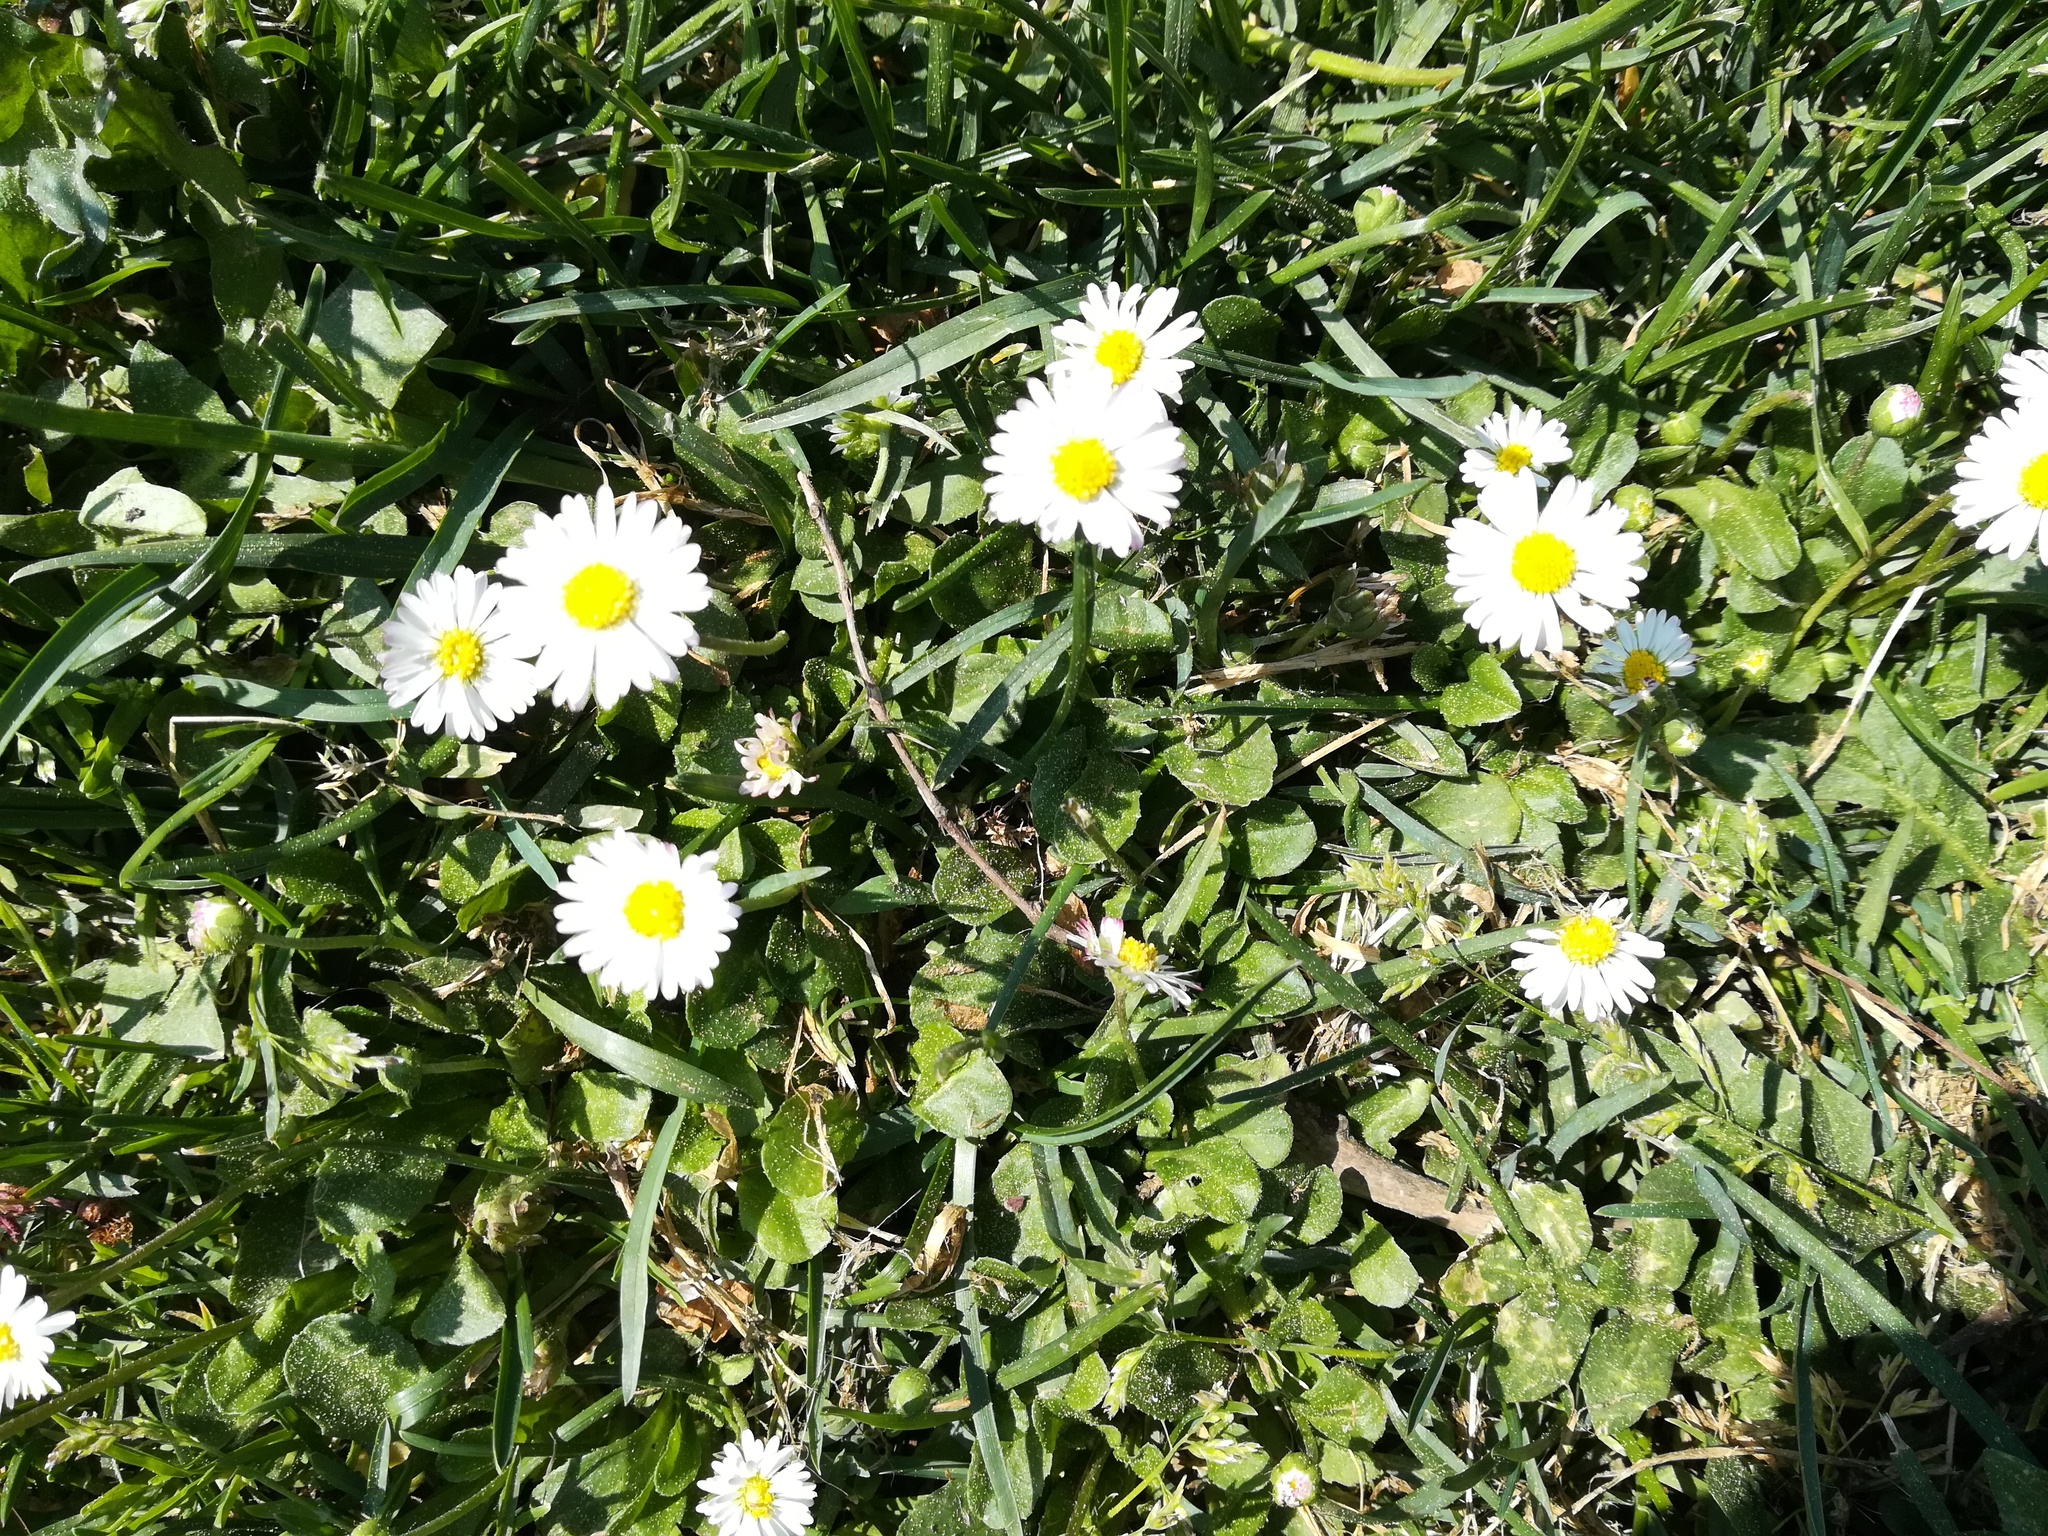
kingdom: Plantae
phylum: Tracheophyta
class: Magnoliopsida
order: Asterales
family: Asteraceae
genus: Bellis
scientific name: Bellis perennis
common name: Lawndaisy
